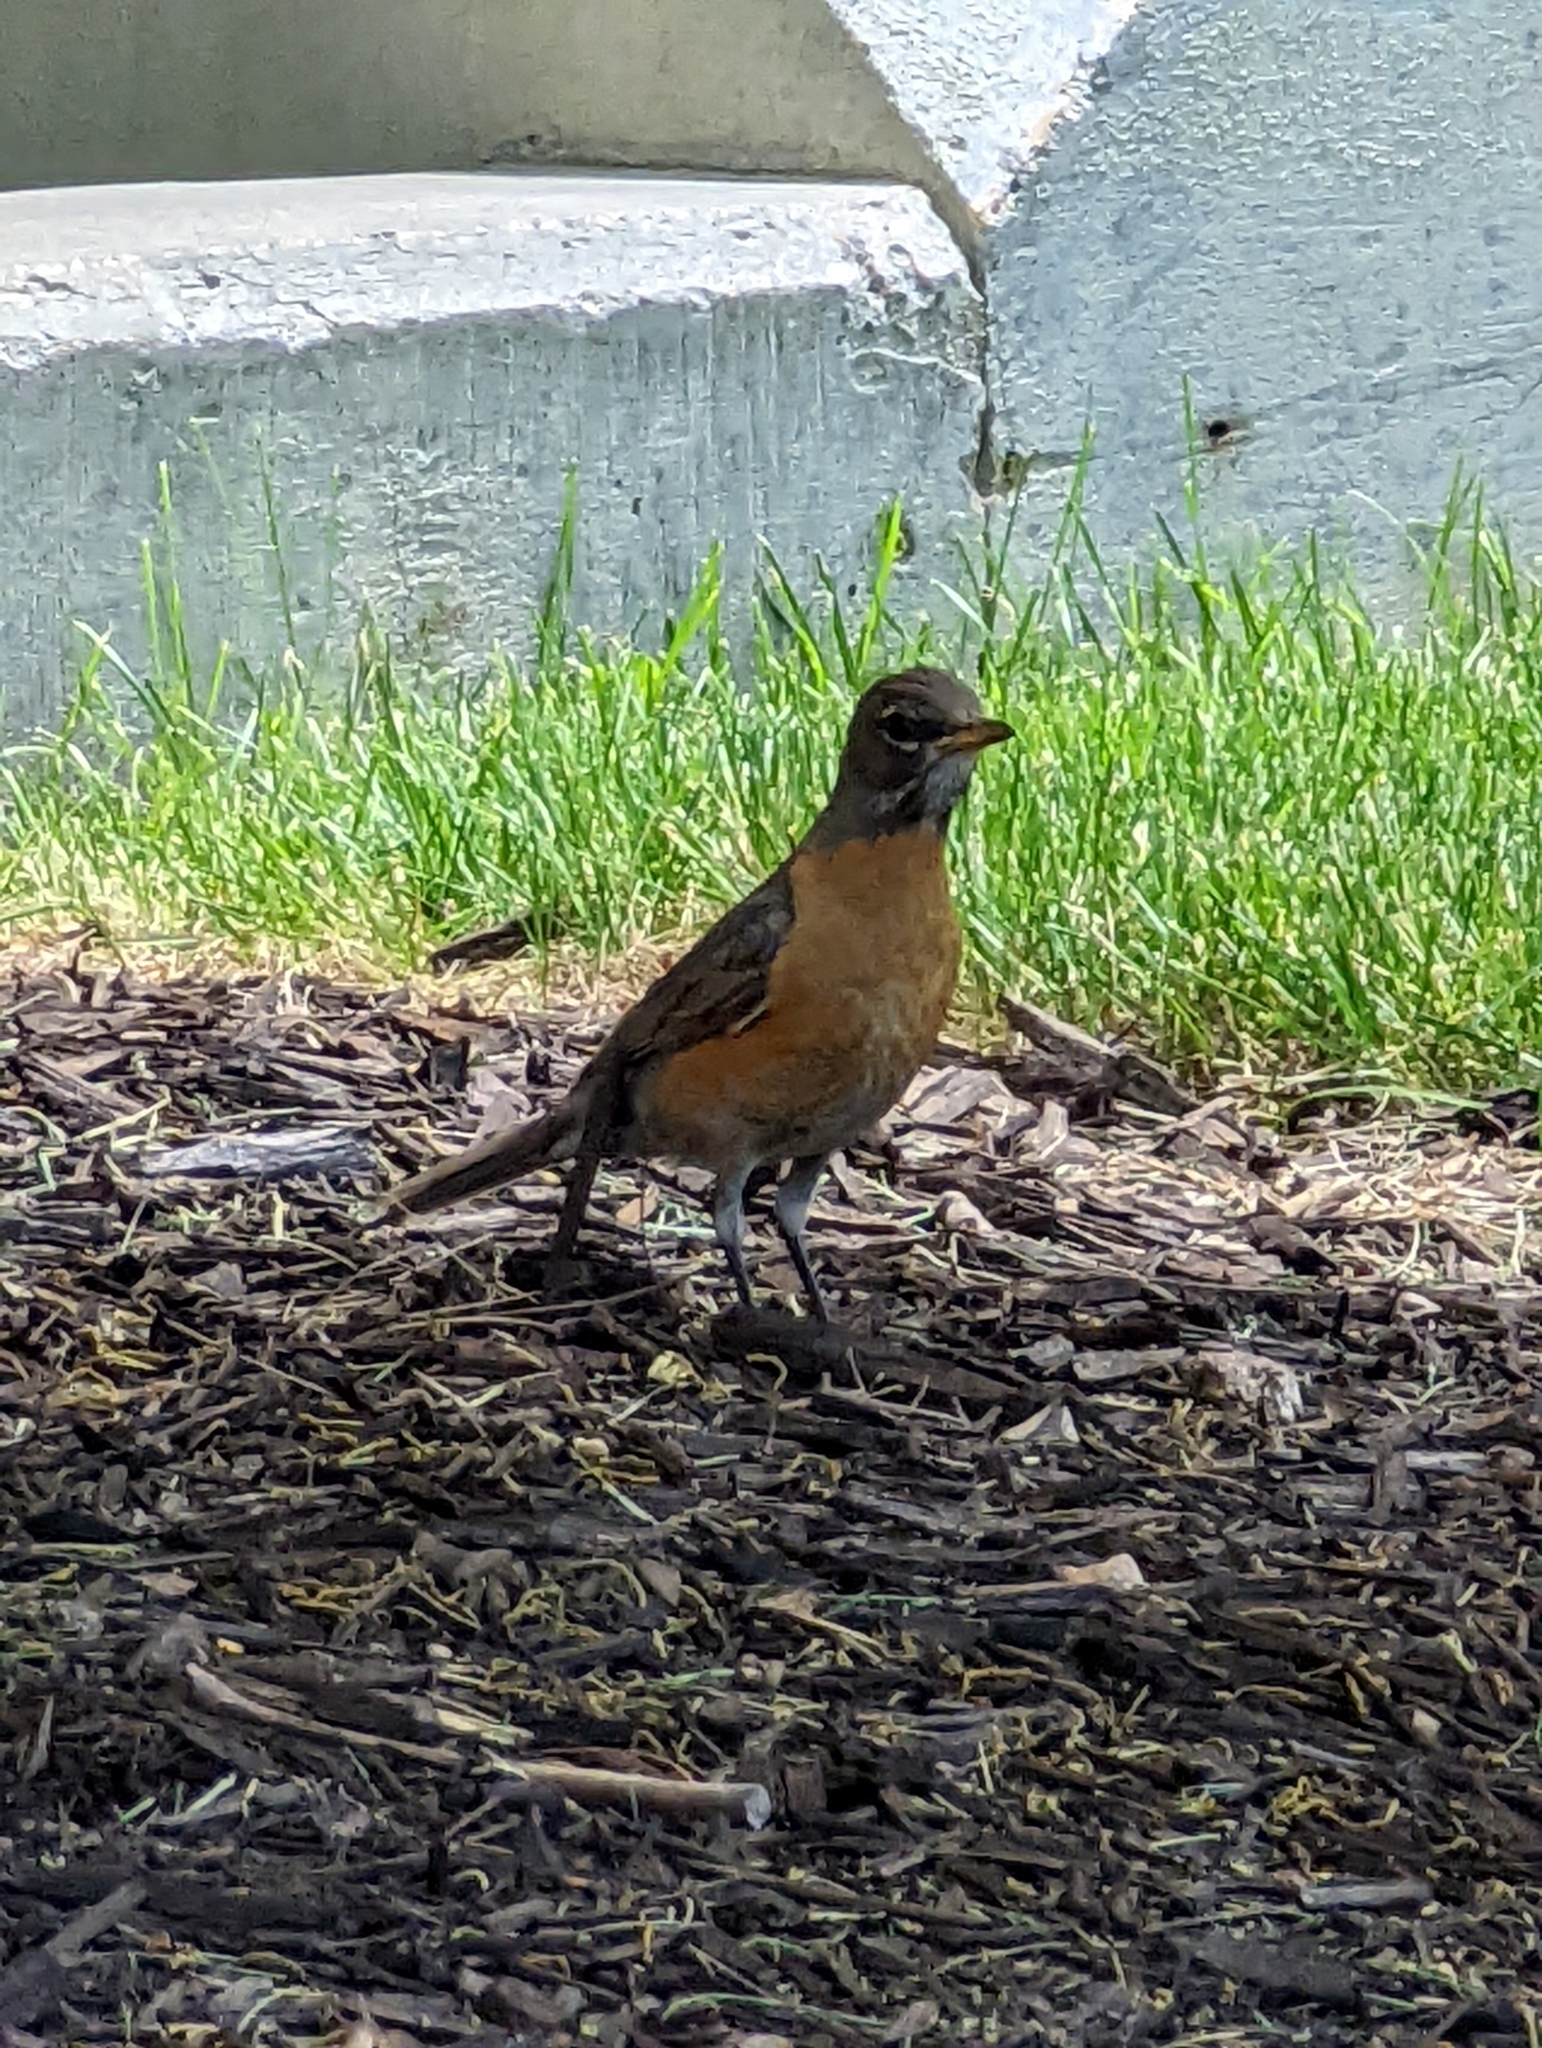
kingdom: Animalia
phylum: Chordata
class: Aves
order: Passeriformes
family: Turdidae
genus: Turdus
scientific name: Turdus migratorius
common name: American robin
